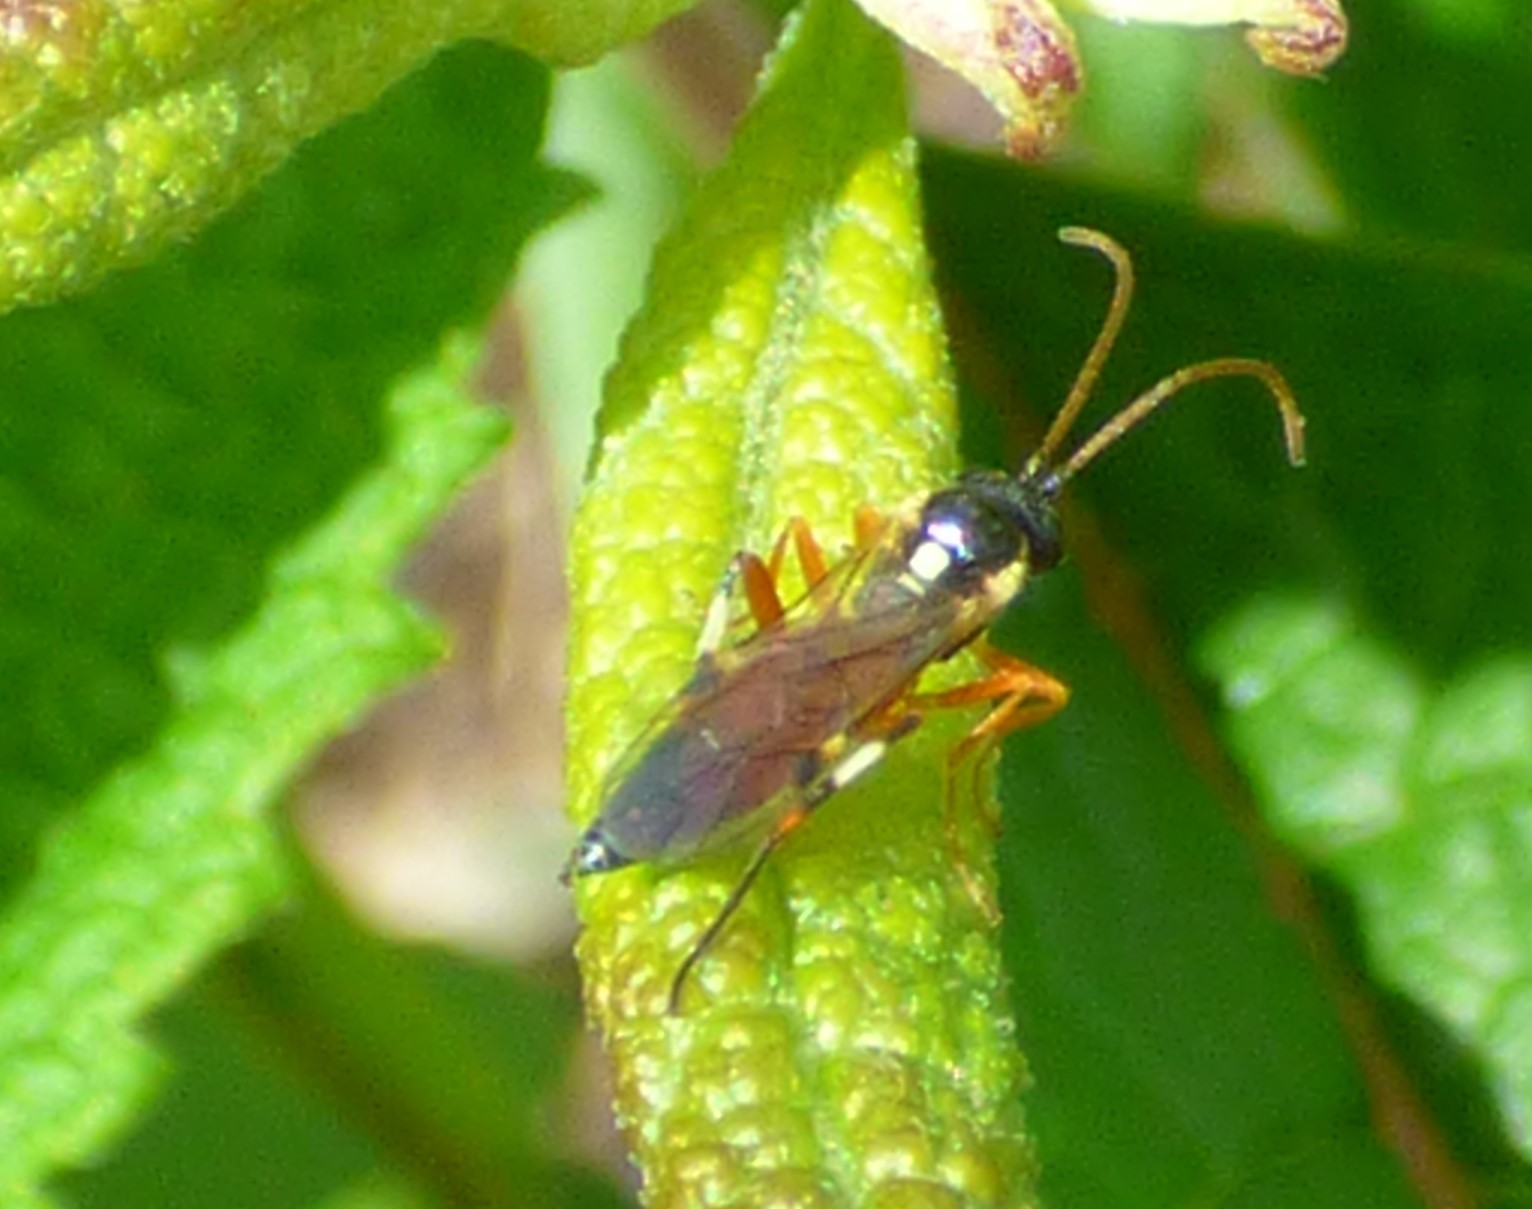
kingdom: Animalia
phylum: Arthropoda
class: Insecta
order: Hymenoptera
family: Ichneumonidae
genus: Diplazon
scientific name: Diplazon laetatorius
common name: Parasitoid wasp
